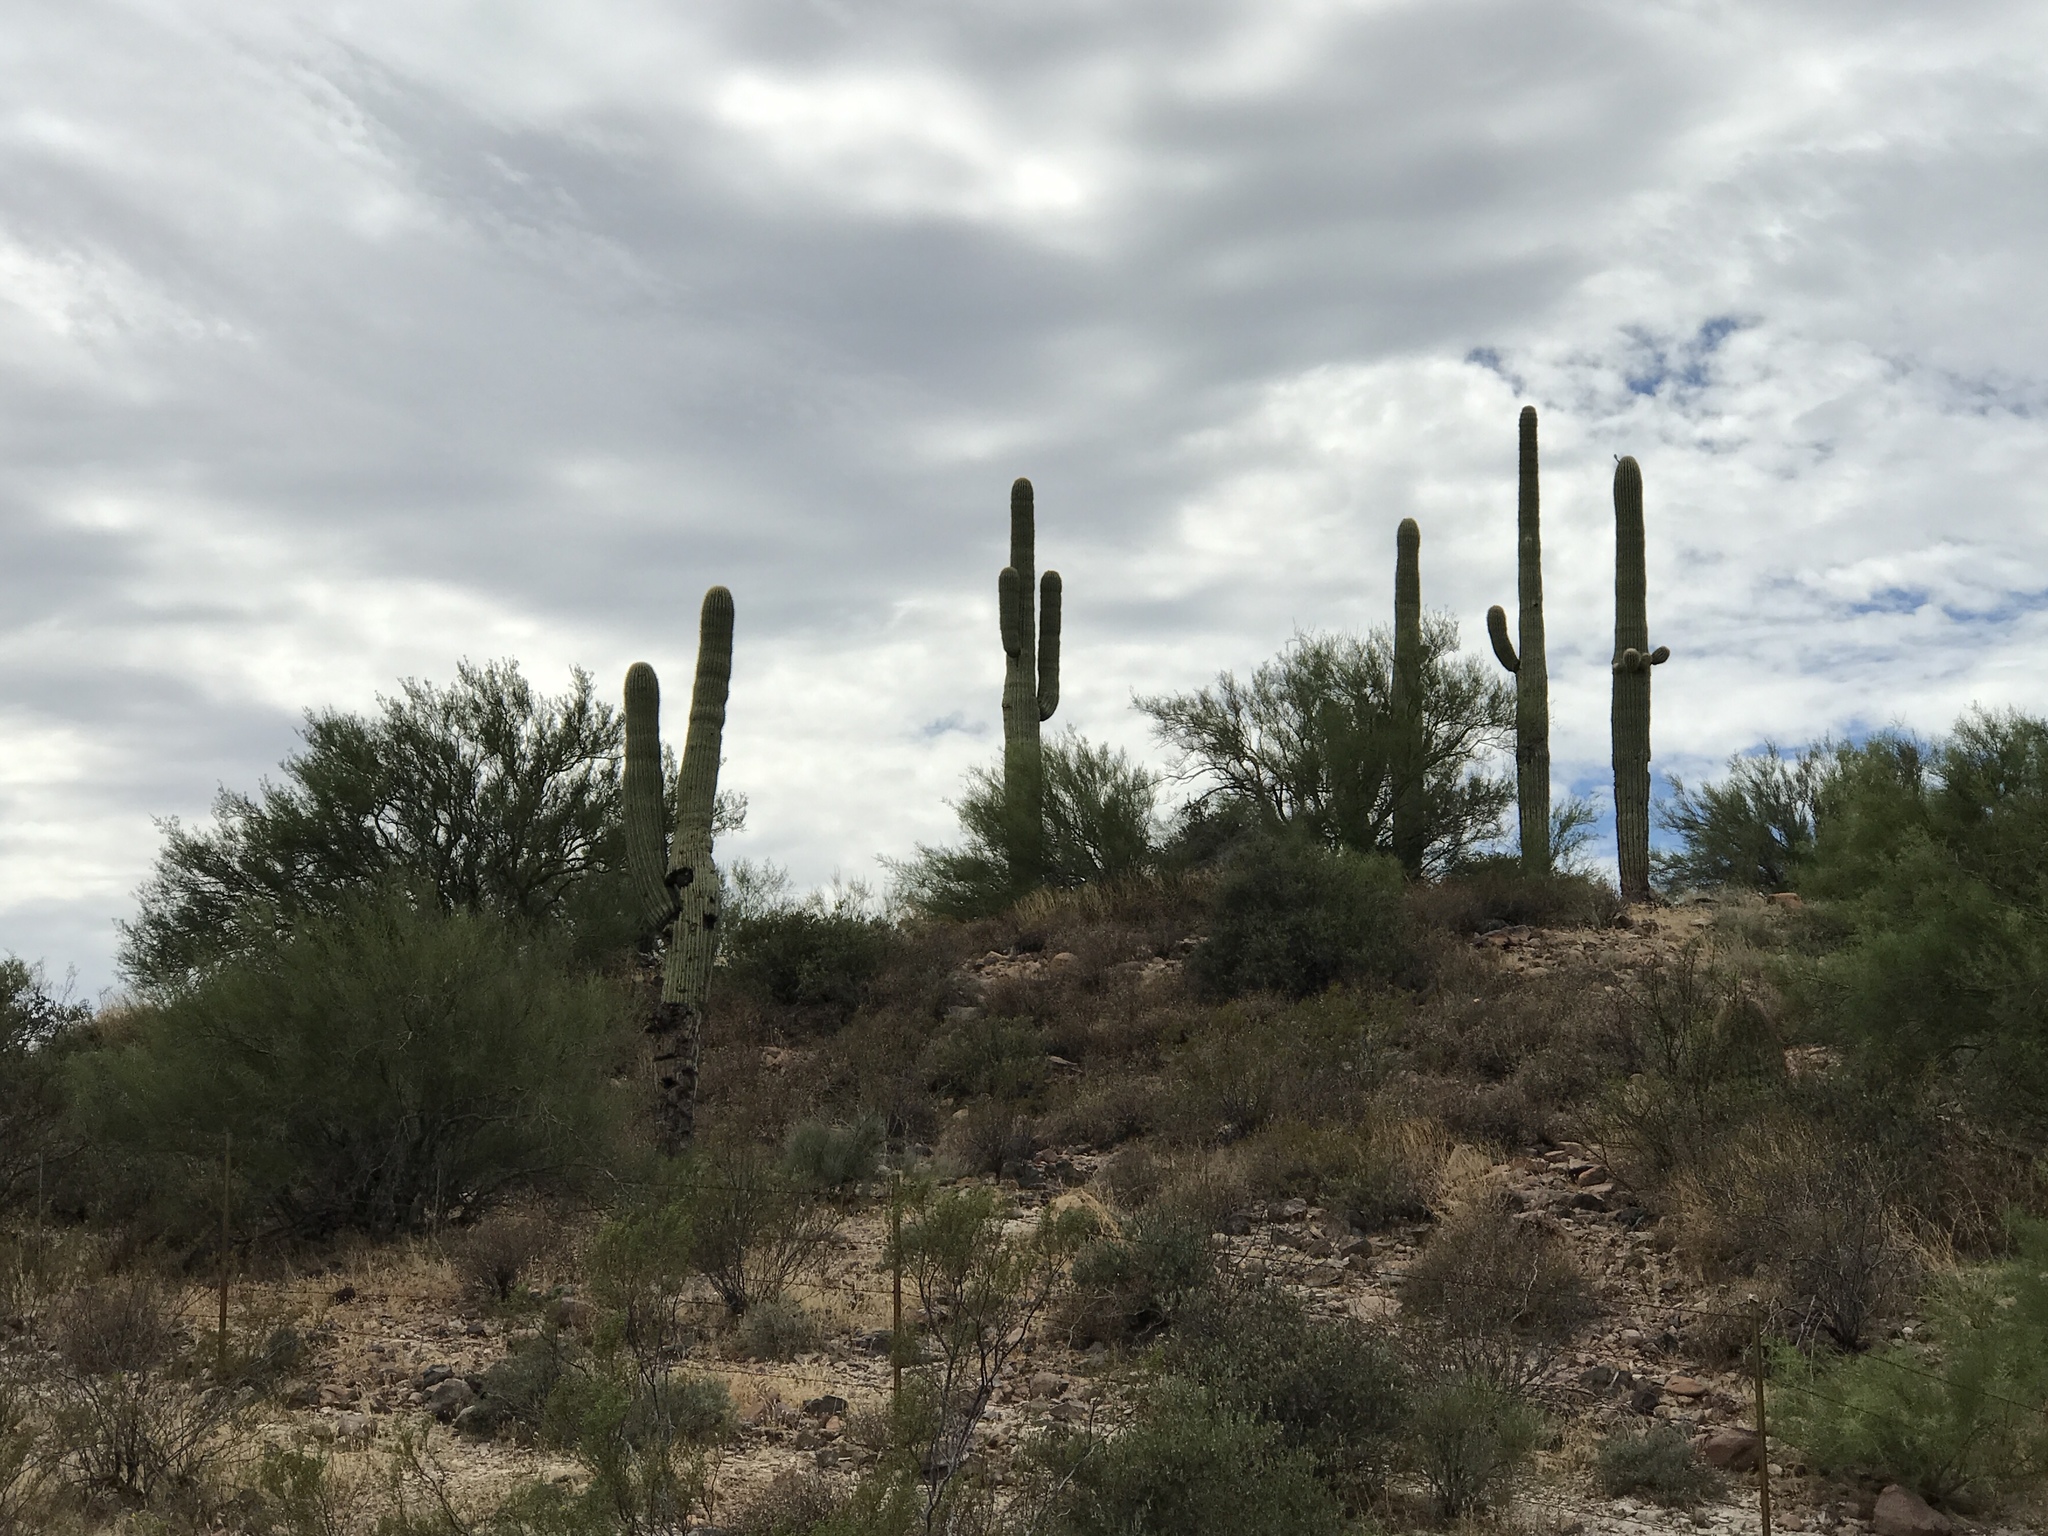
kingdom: Plantae
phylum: Tracheophyta
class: Magnoliopsida
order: Caryophyllales
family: Cactaceae
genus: Carnegiea
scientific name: Carnegiea gigantea
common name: Saguaro
